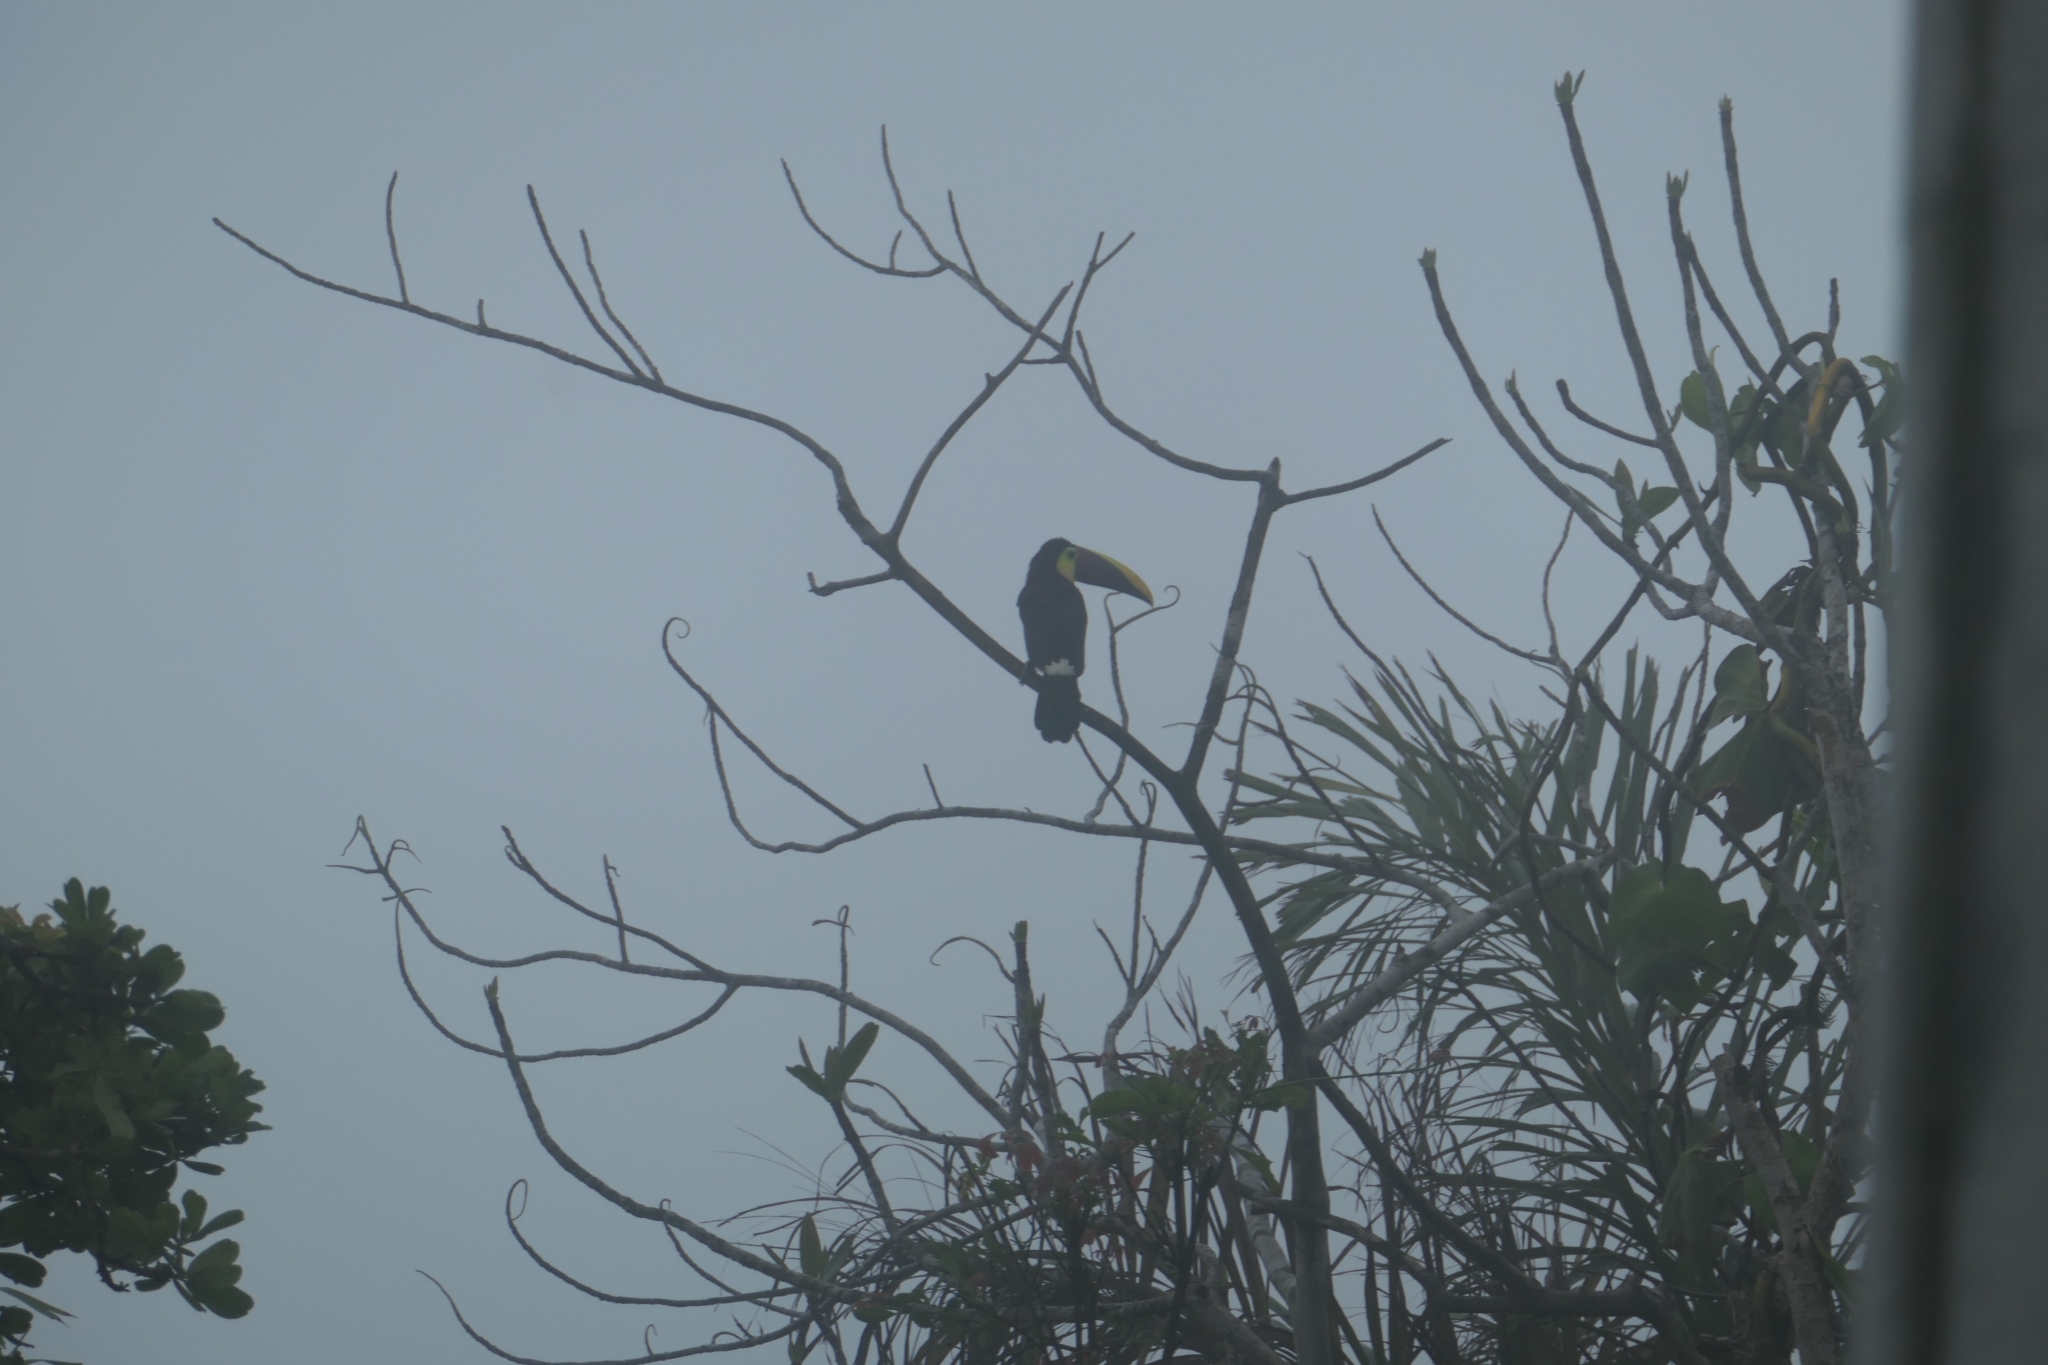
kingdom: Animalia
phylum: Chordata
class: Aves
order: Piciformes
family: Ramphastidae
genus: Ramphastos
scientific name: Ramphastos ambiguus
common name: Yellow-throated toucan
